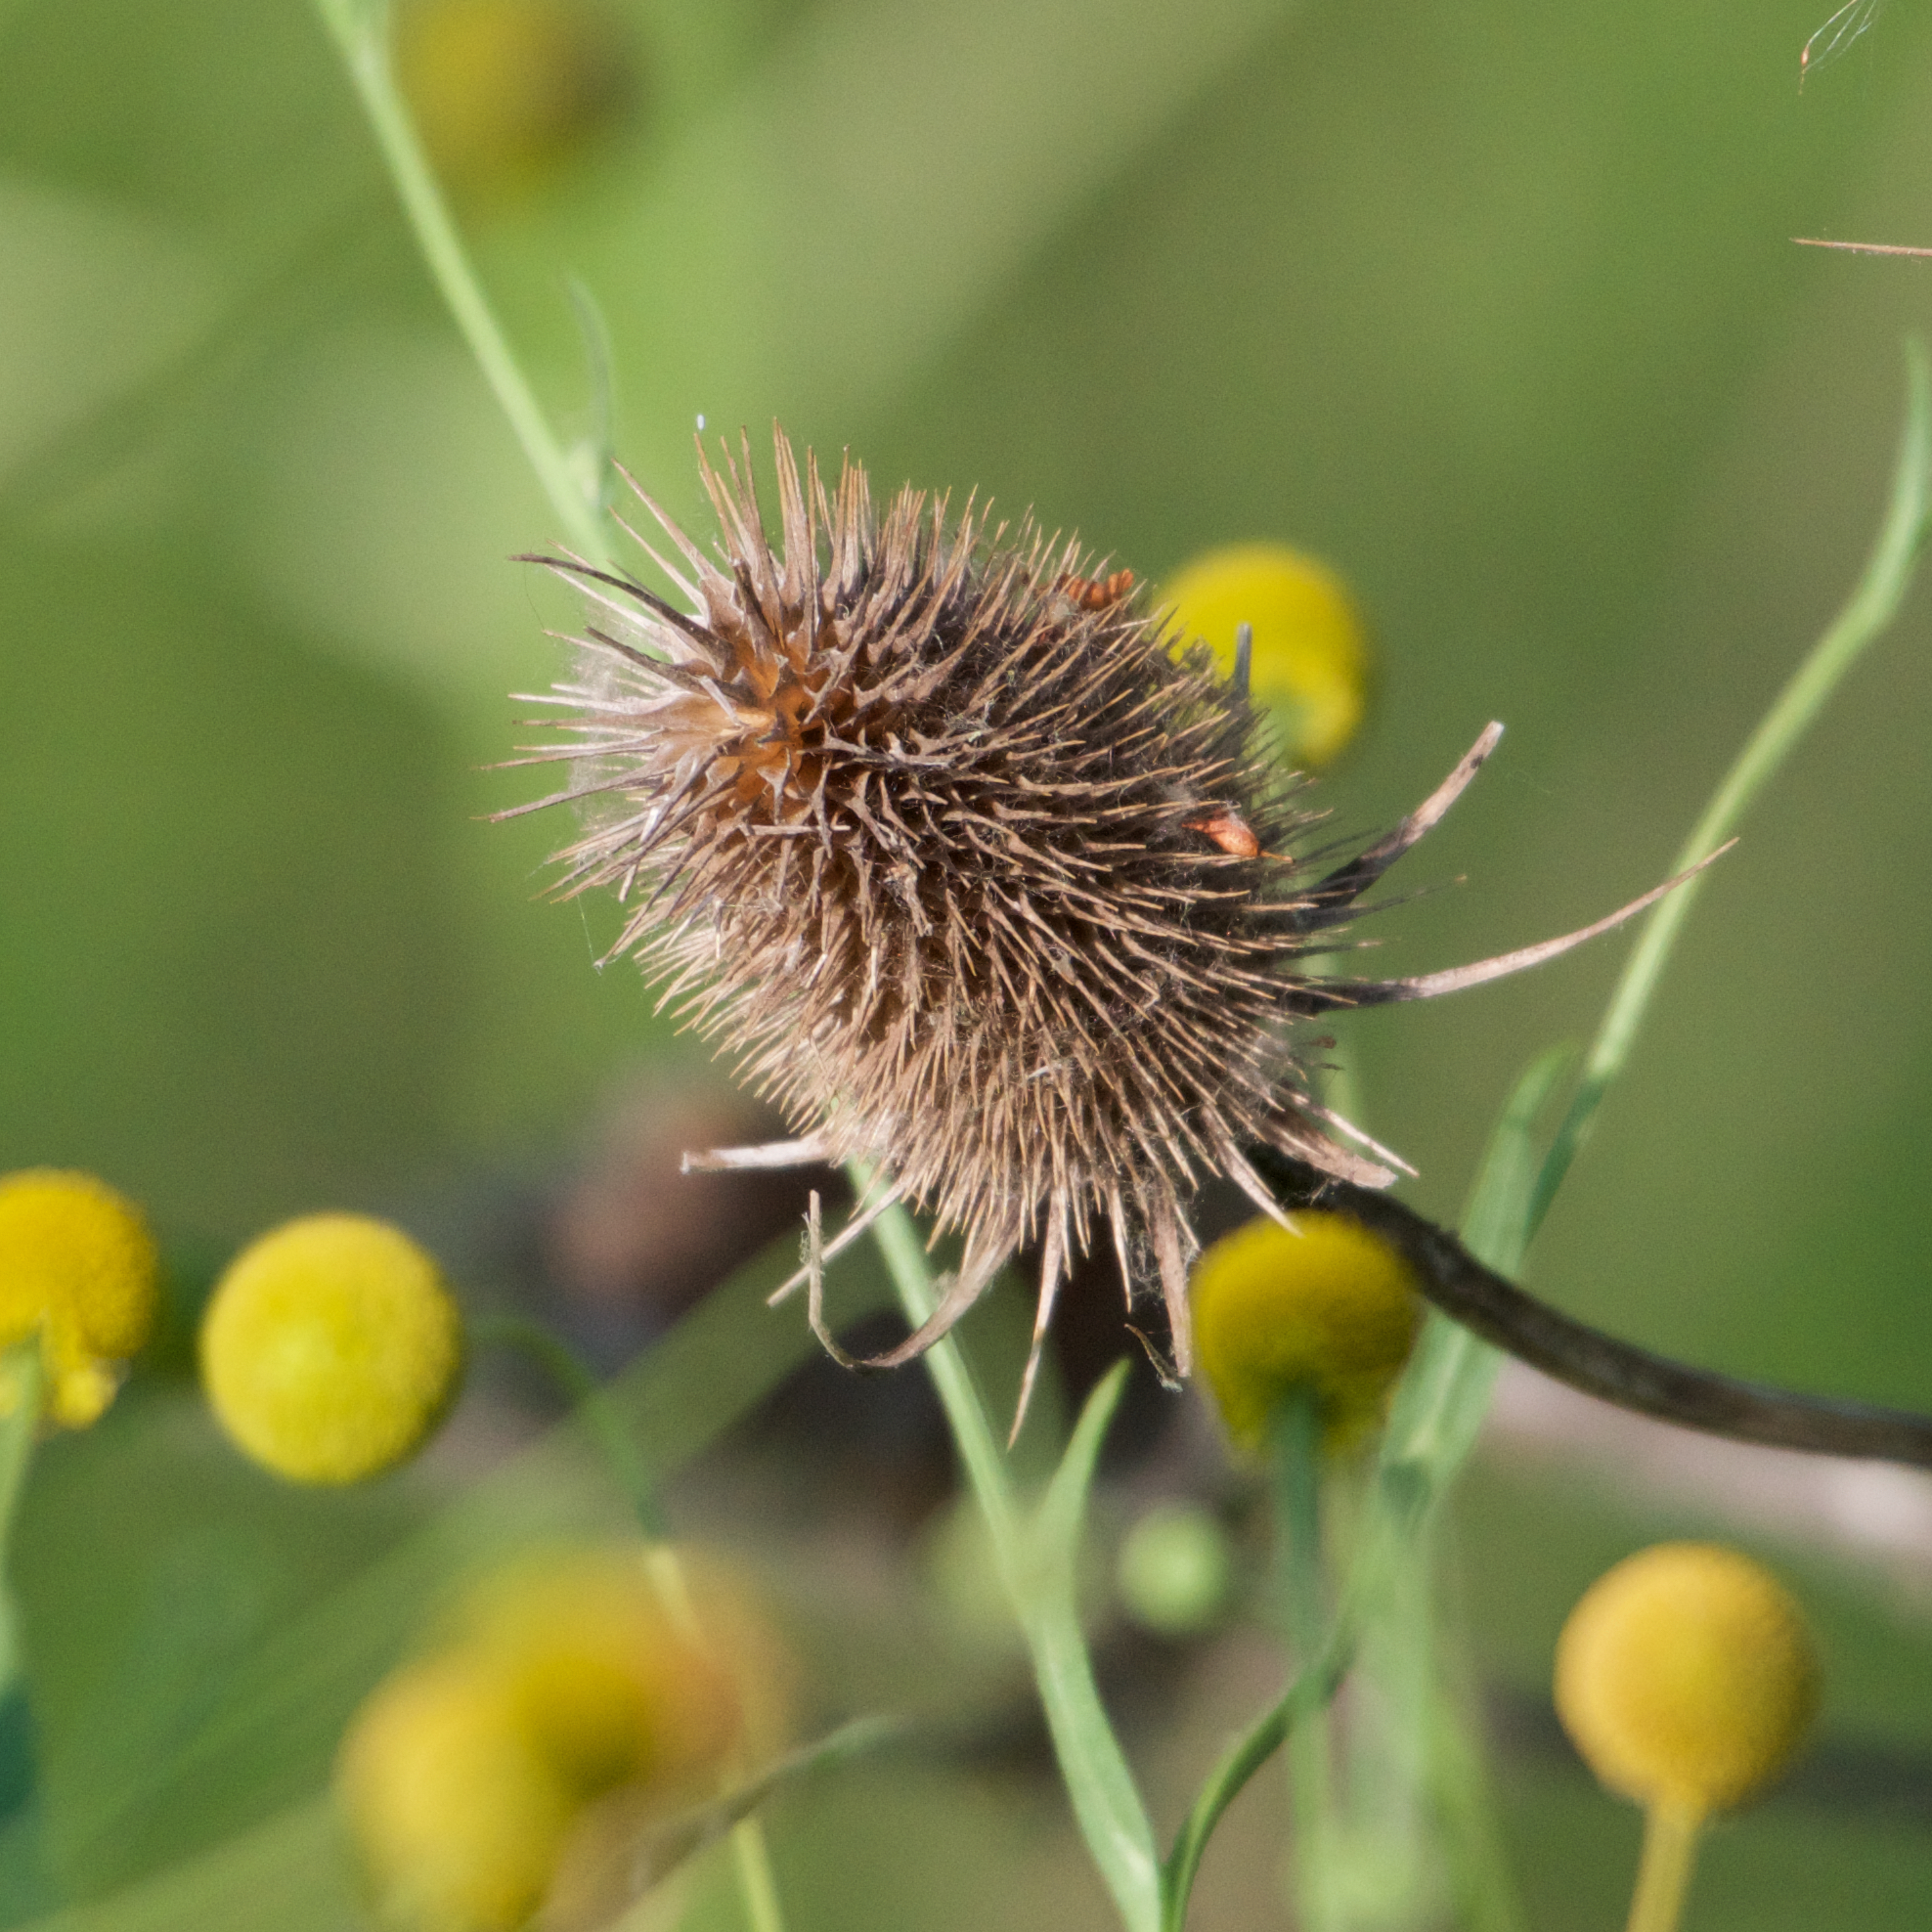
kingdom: Plantae
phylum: Tracheophyta
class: Magnoliopsida
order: Dipsacales
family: Caprifoliaceae
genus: Dipsacus
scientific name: Dipsacus fullonum
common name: Teasel
